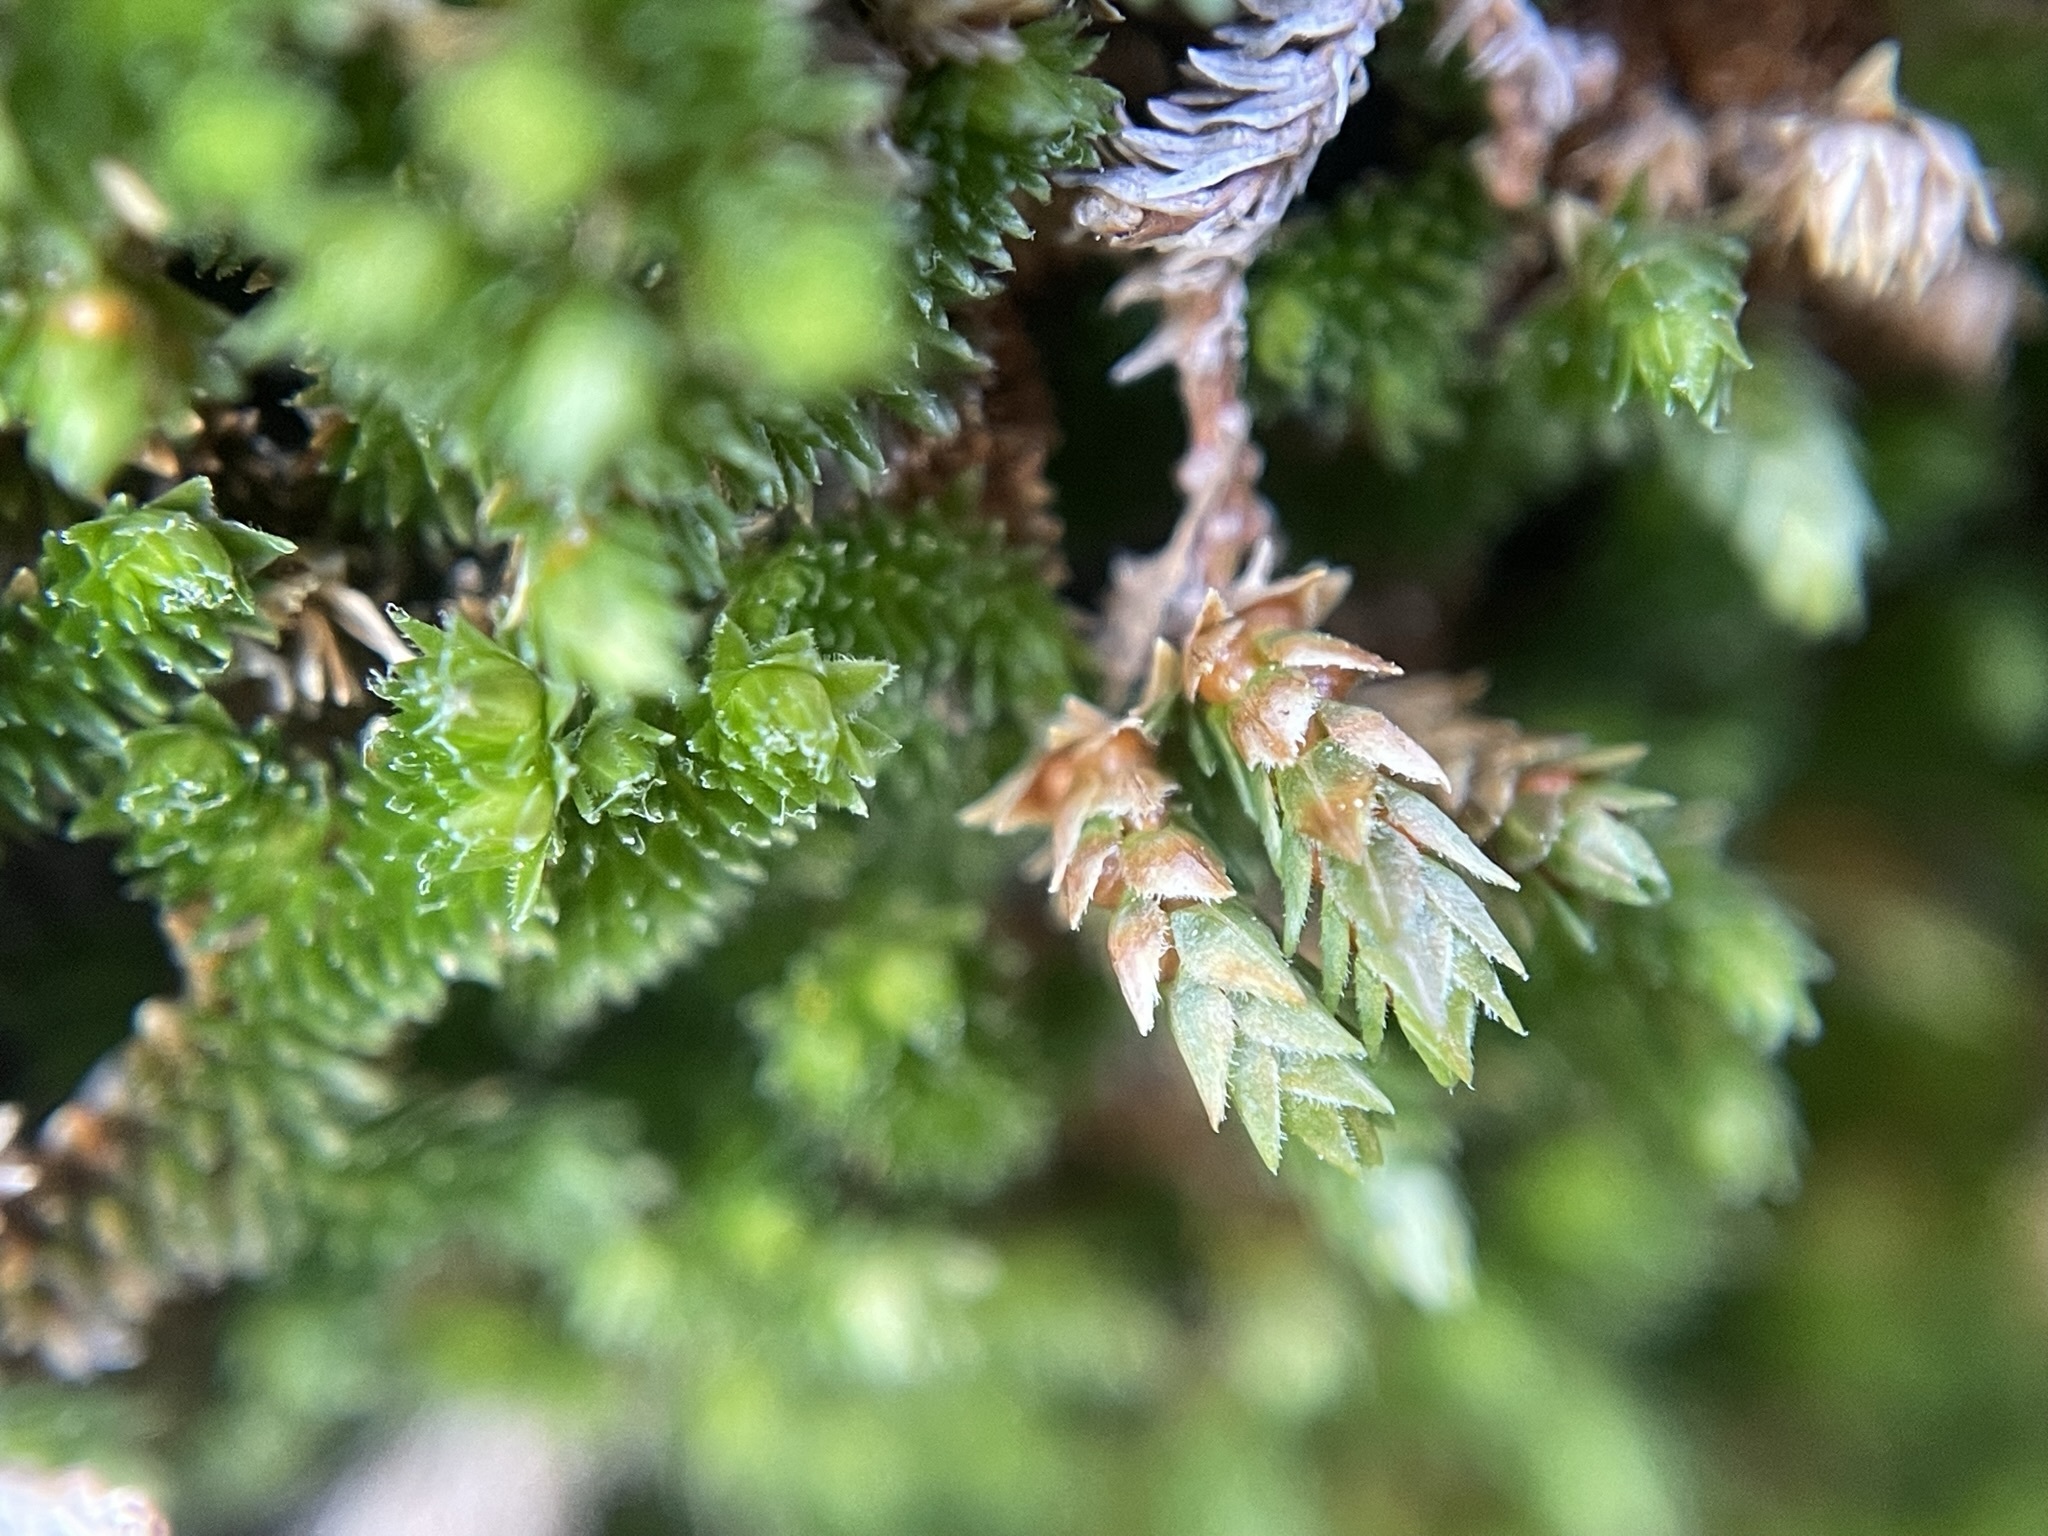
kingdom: Plantae
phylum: Tracheophyta
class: Lycopodiopsida
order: Selaginellales
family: Selaginellaceae
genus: Selaginella
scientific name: Selaginella eremophila
